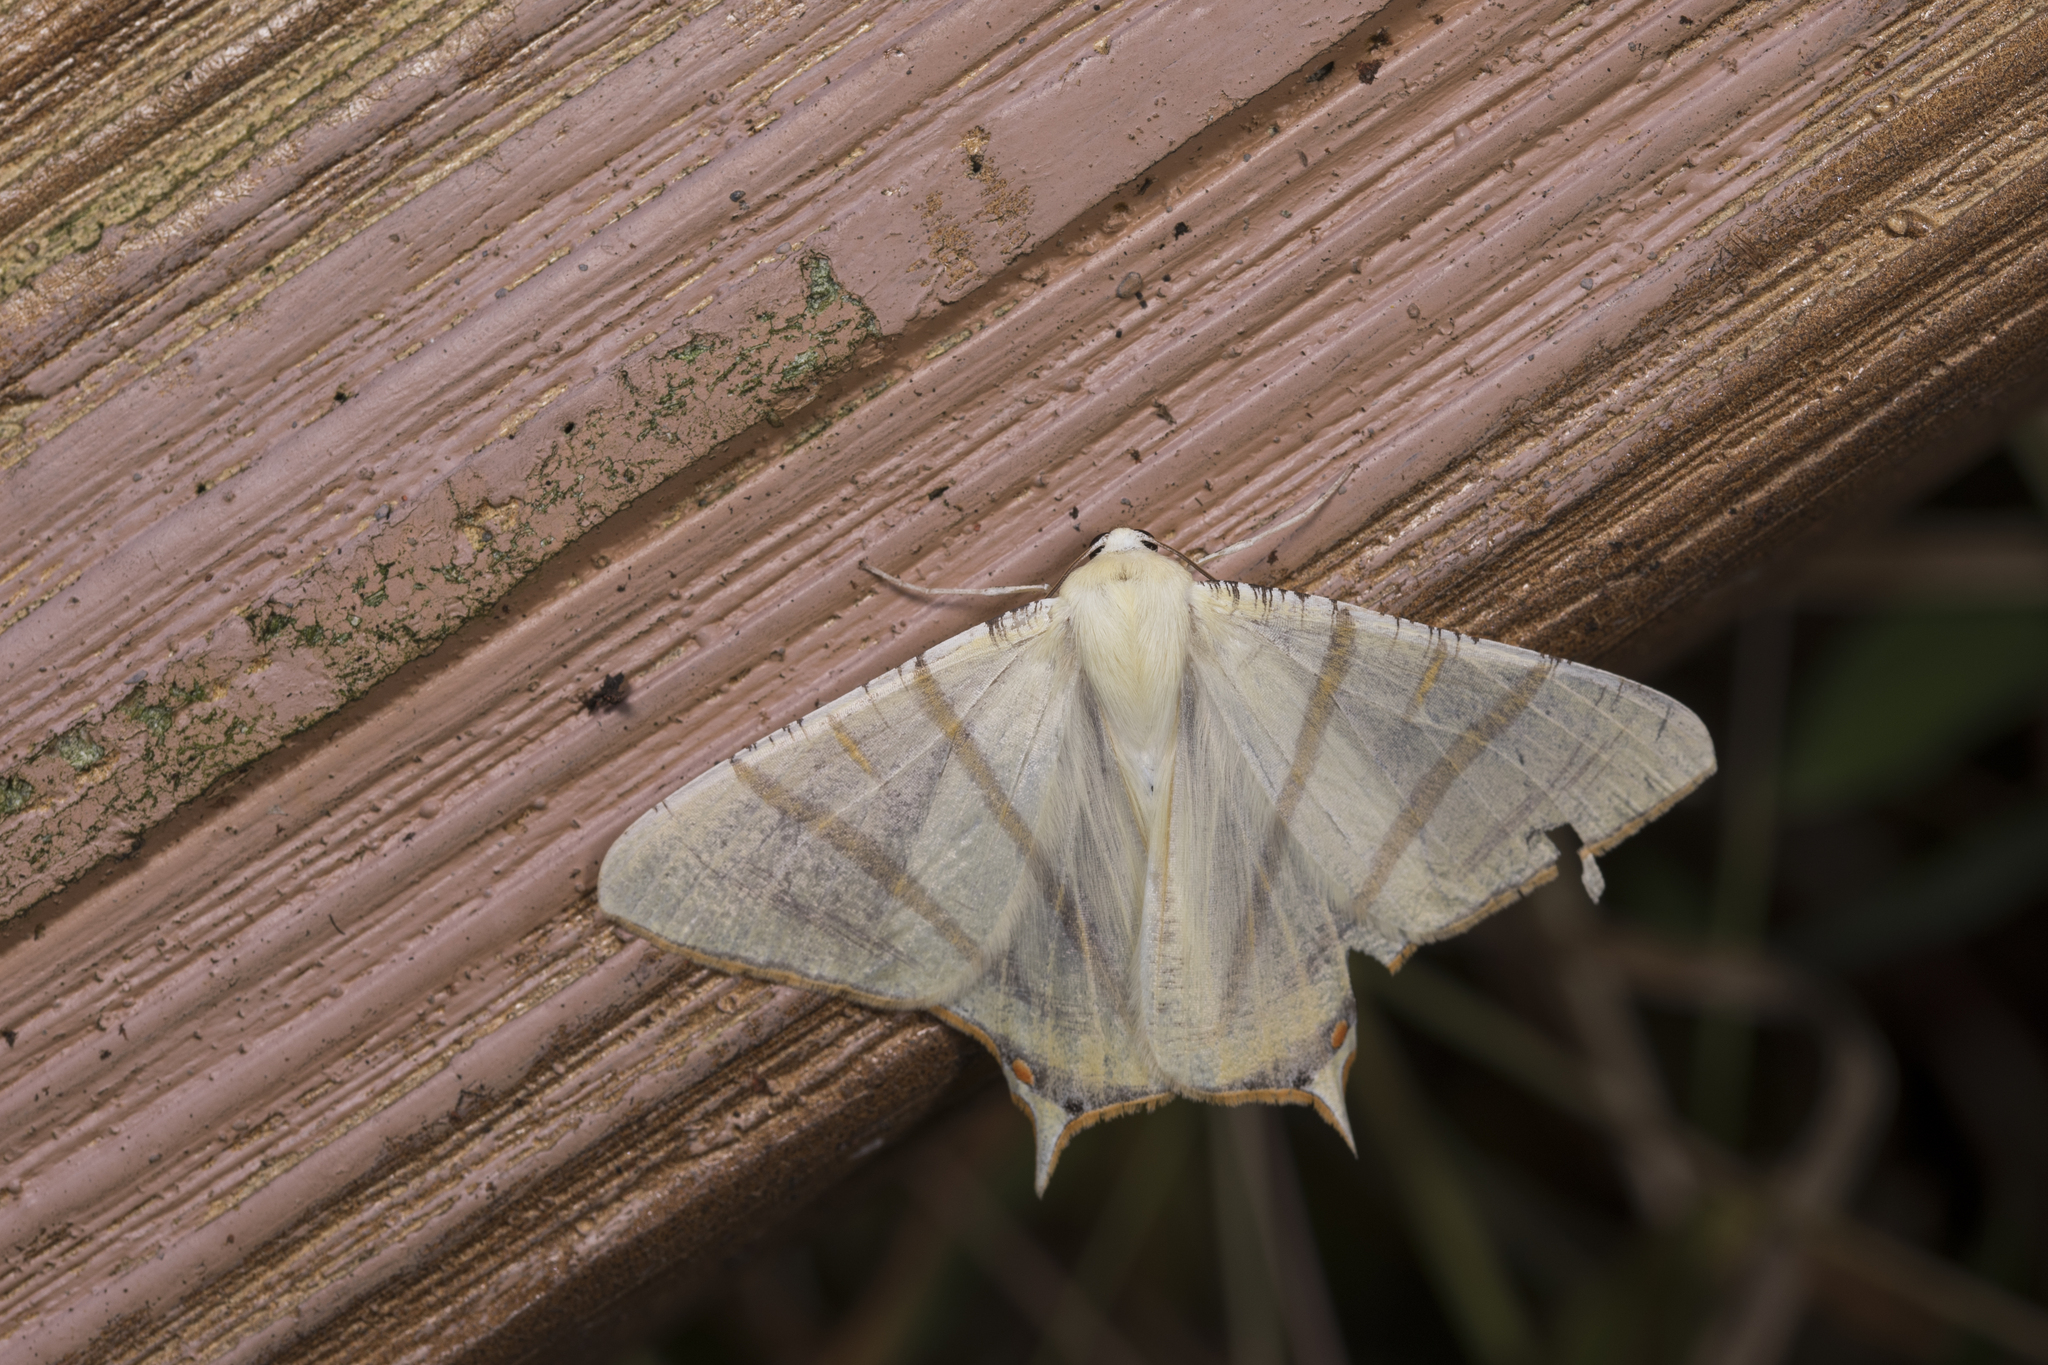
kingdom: Animalia
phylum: Arthropoda
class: Insecta
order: Lepidoptera
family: Geometridae
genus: Ourapteryx
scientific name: Ourapteryx sciticaudaria
